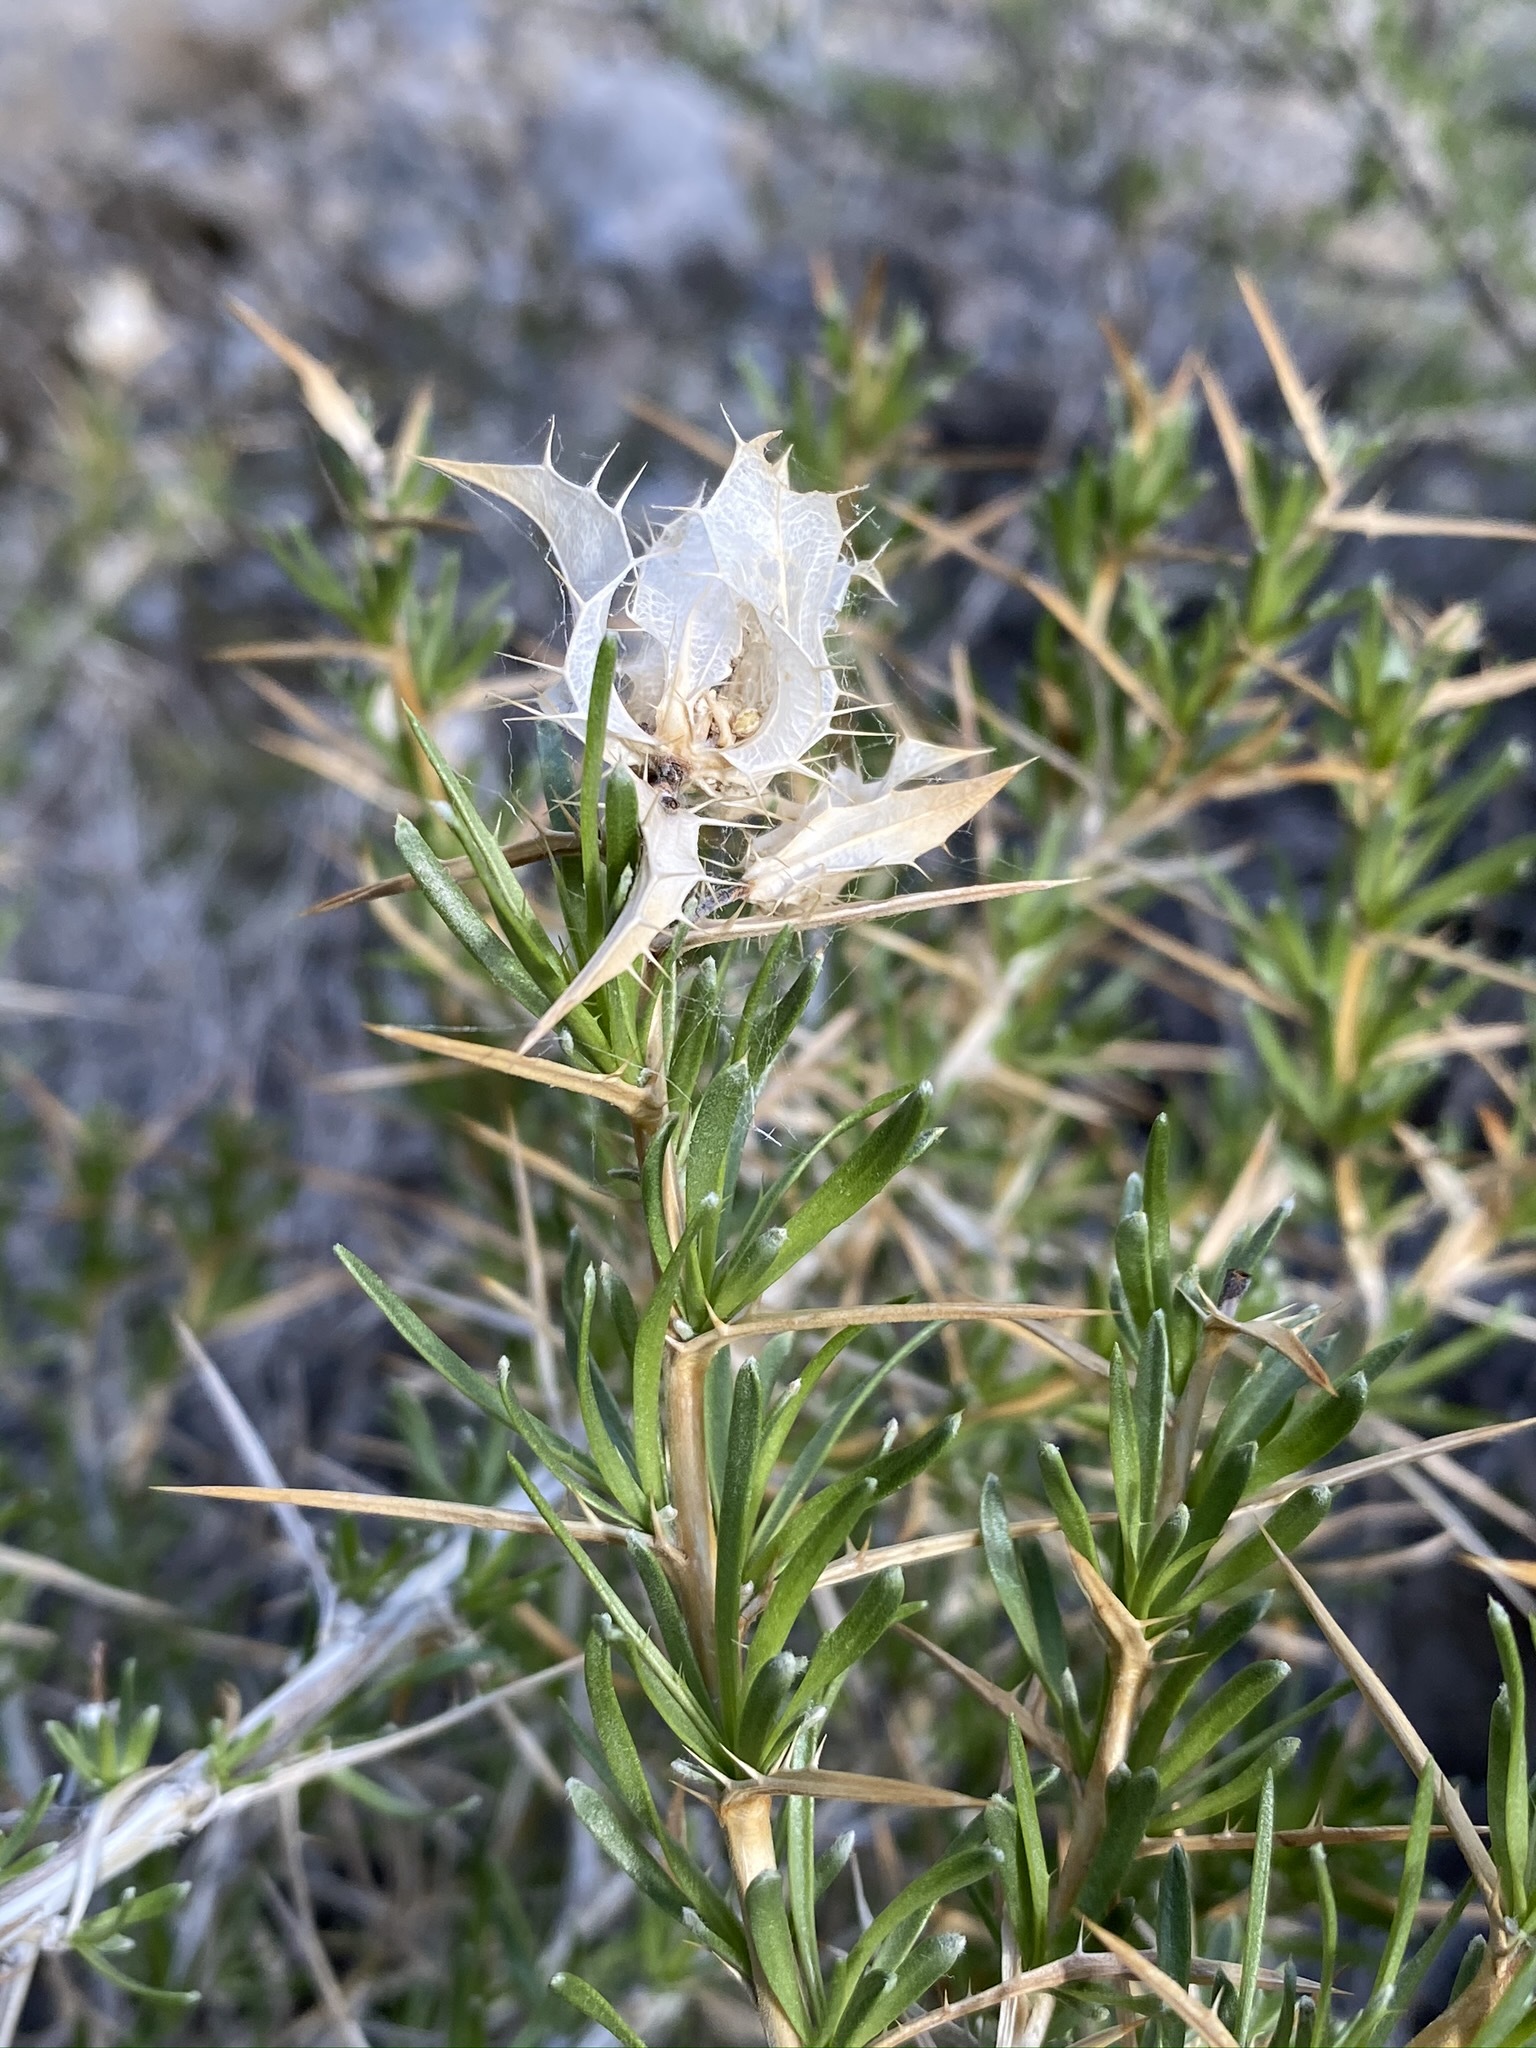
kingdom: Plantae
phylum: Tracheophyta
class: Magnoliopsida
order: Asterales
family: Asteraceae
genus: Hecastocleis
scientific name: Hecastocleis shockleyi
